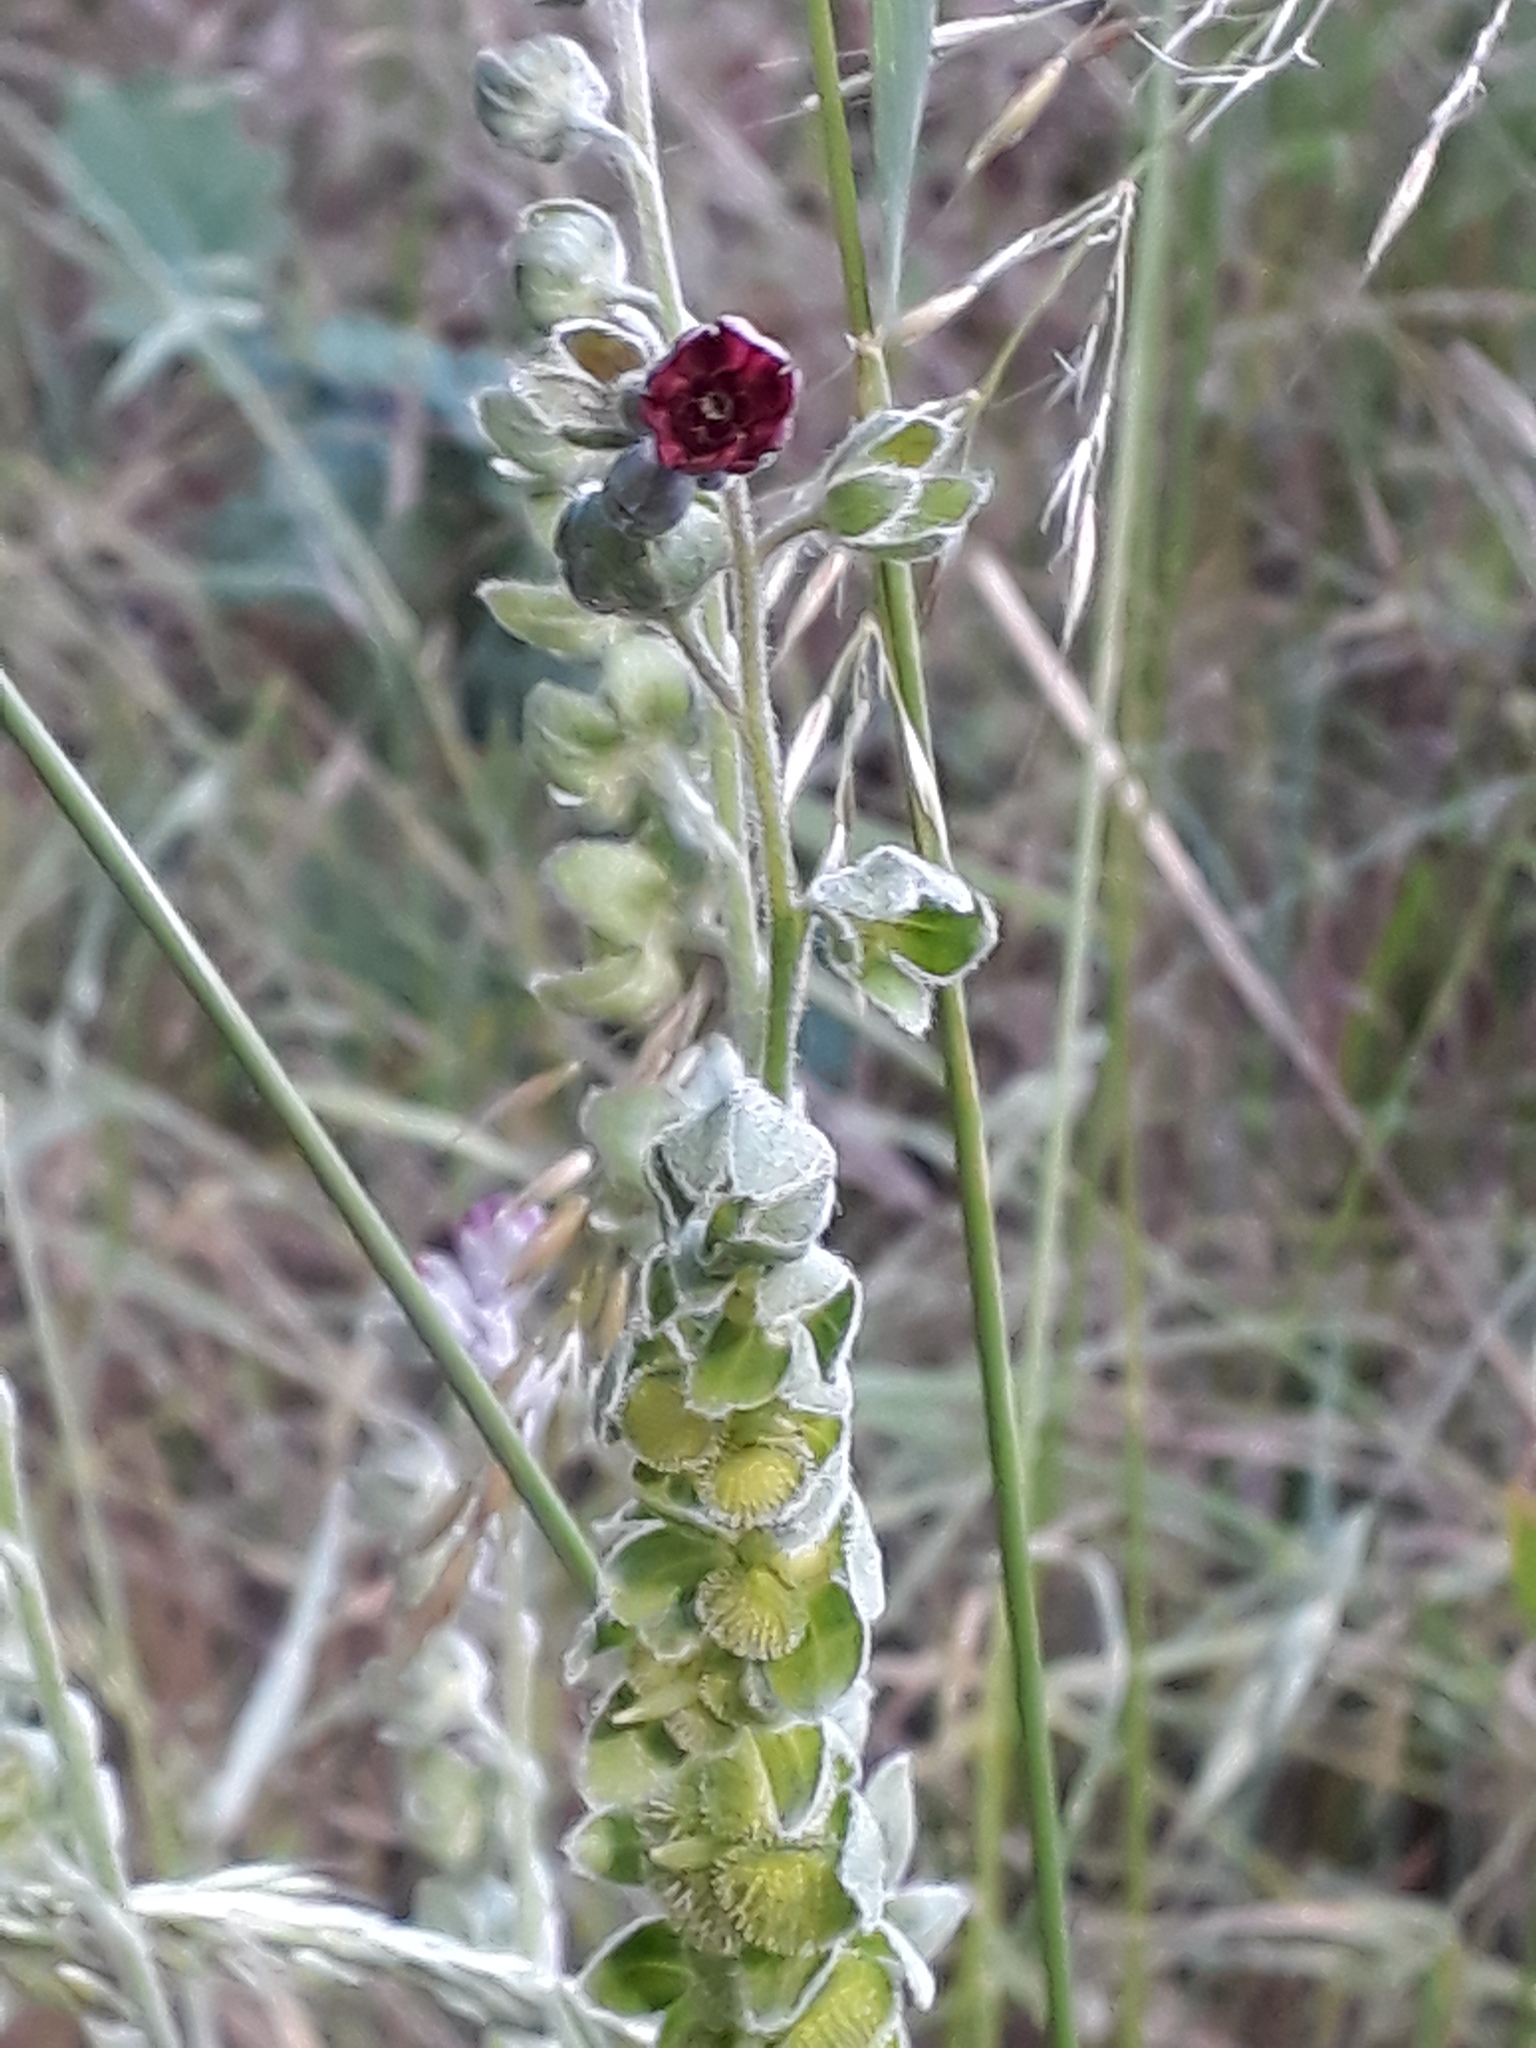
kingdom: Plantae
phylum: Tracheophyta
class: Magnoliopsida
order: Boraginales
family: Boraginaceae
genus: Cynoglossum
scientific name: Cynoglossum officinale
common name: Hound's-tongue
